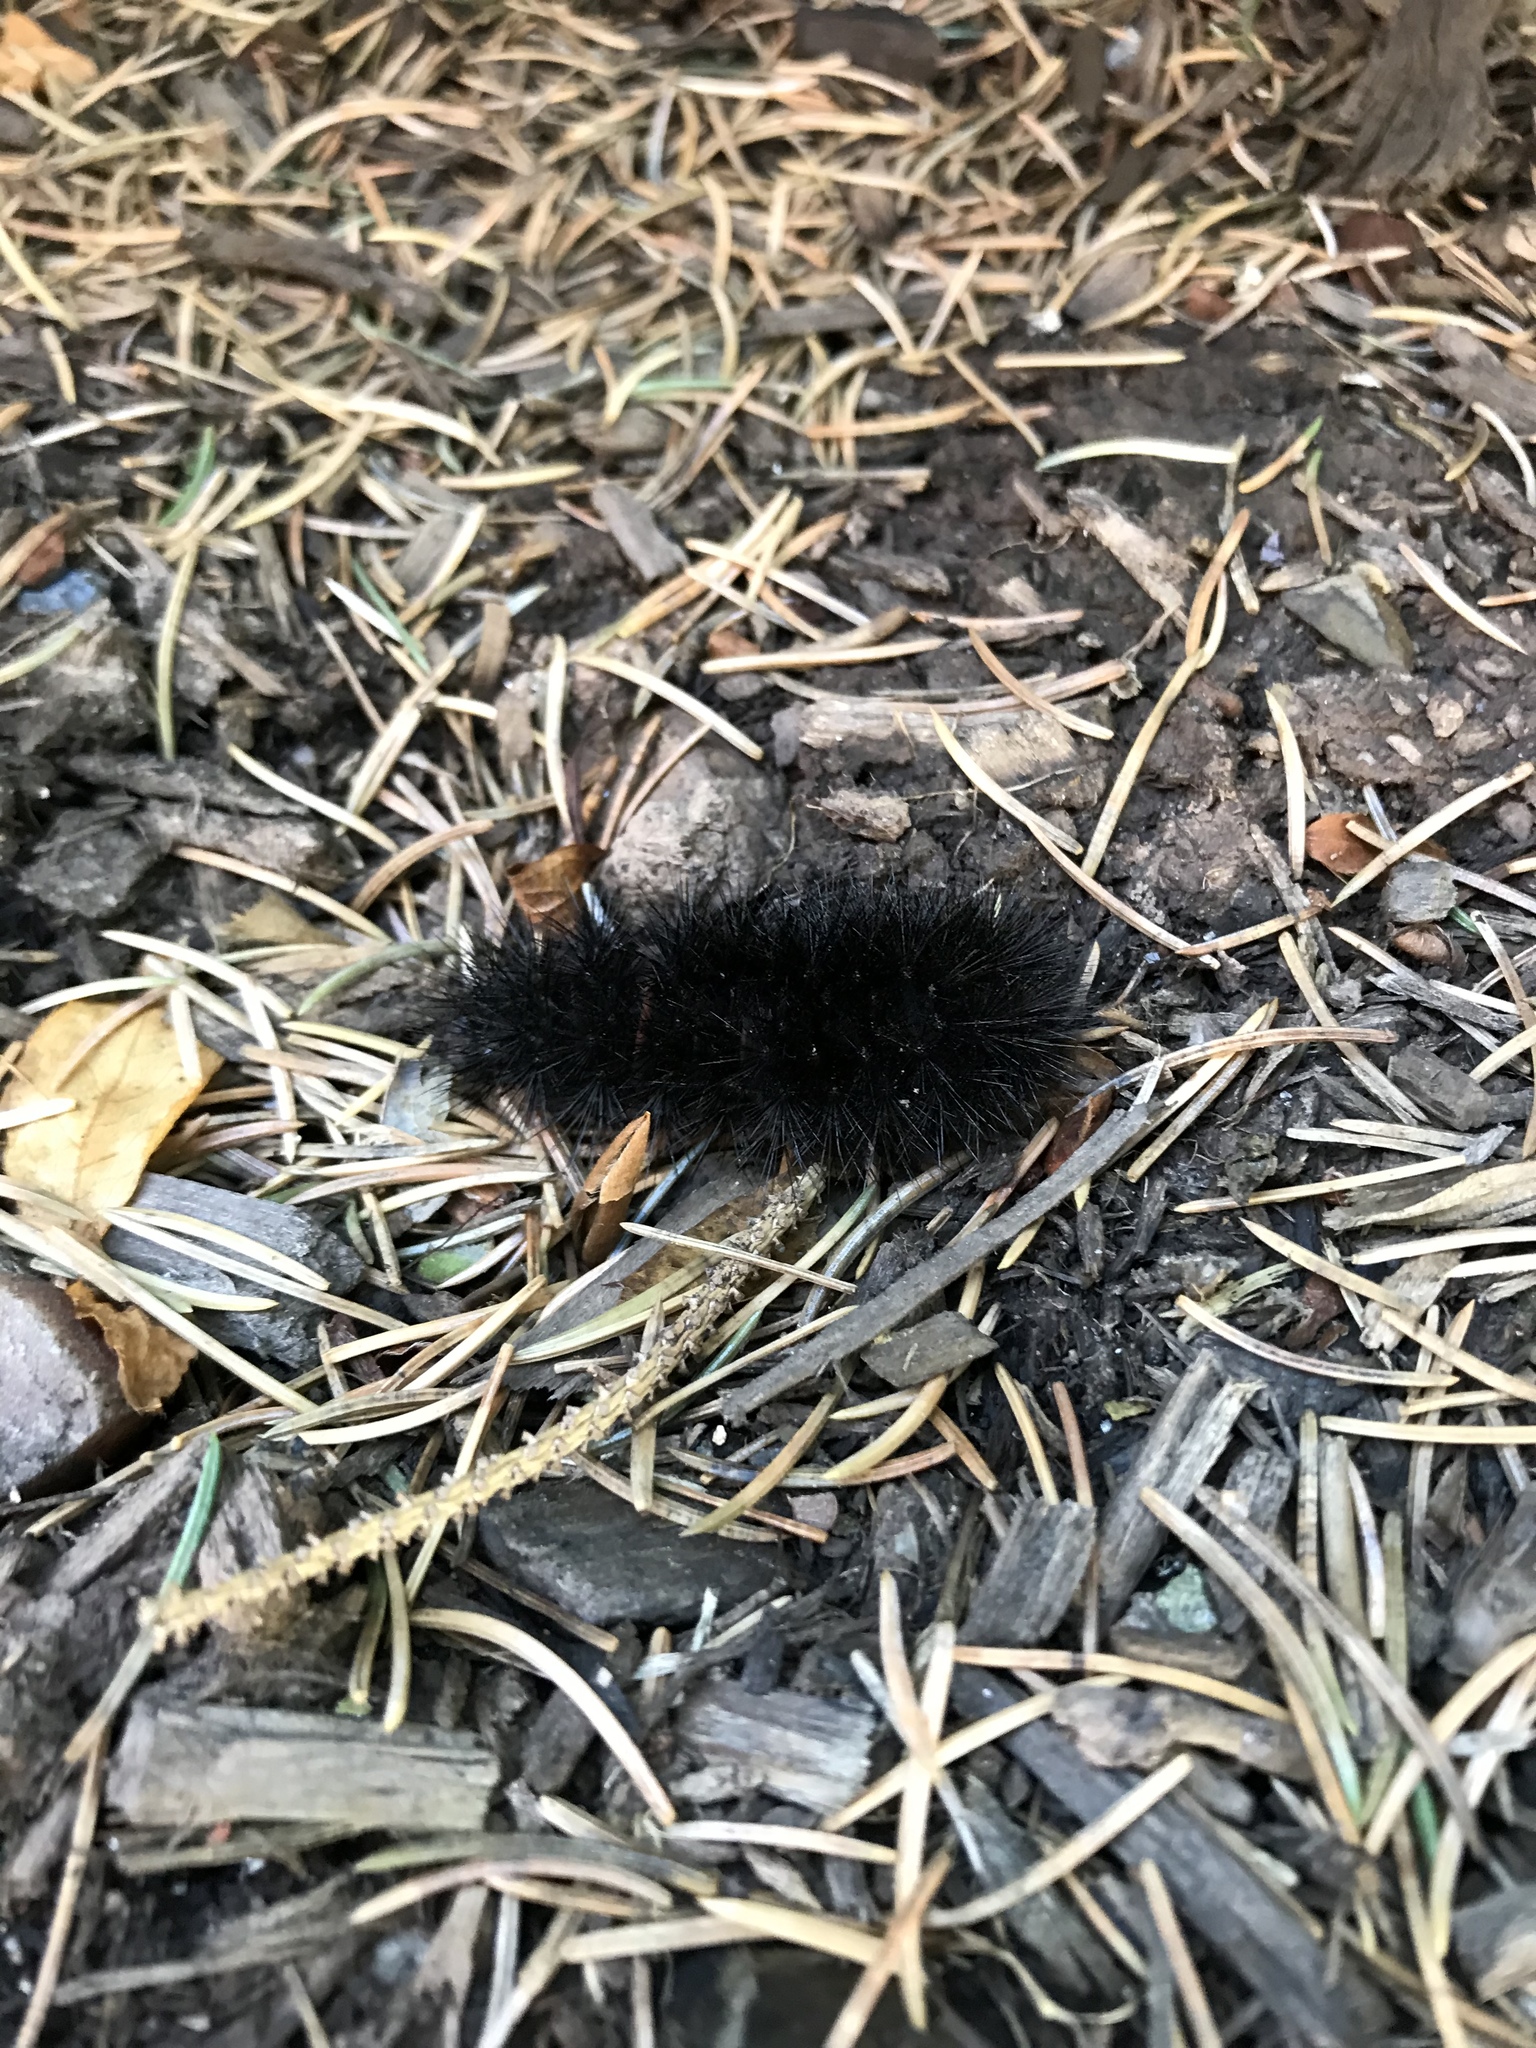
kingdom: Animalia
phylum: Arthropoda
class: Insecta
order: Lepidoptera
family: Erebidae
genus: Hypercompe
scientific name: Hypercompe scribonia
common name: Giant leopard moth
